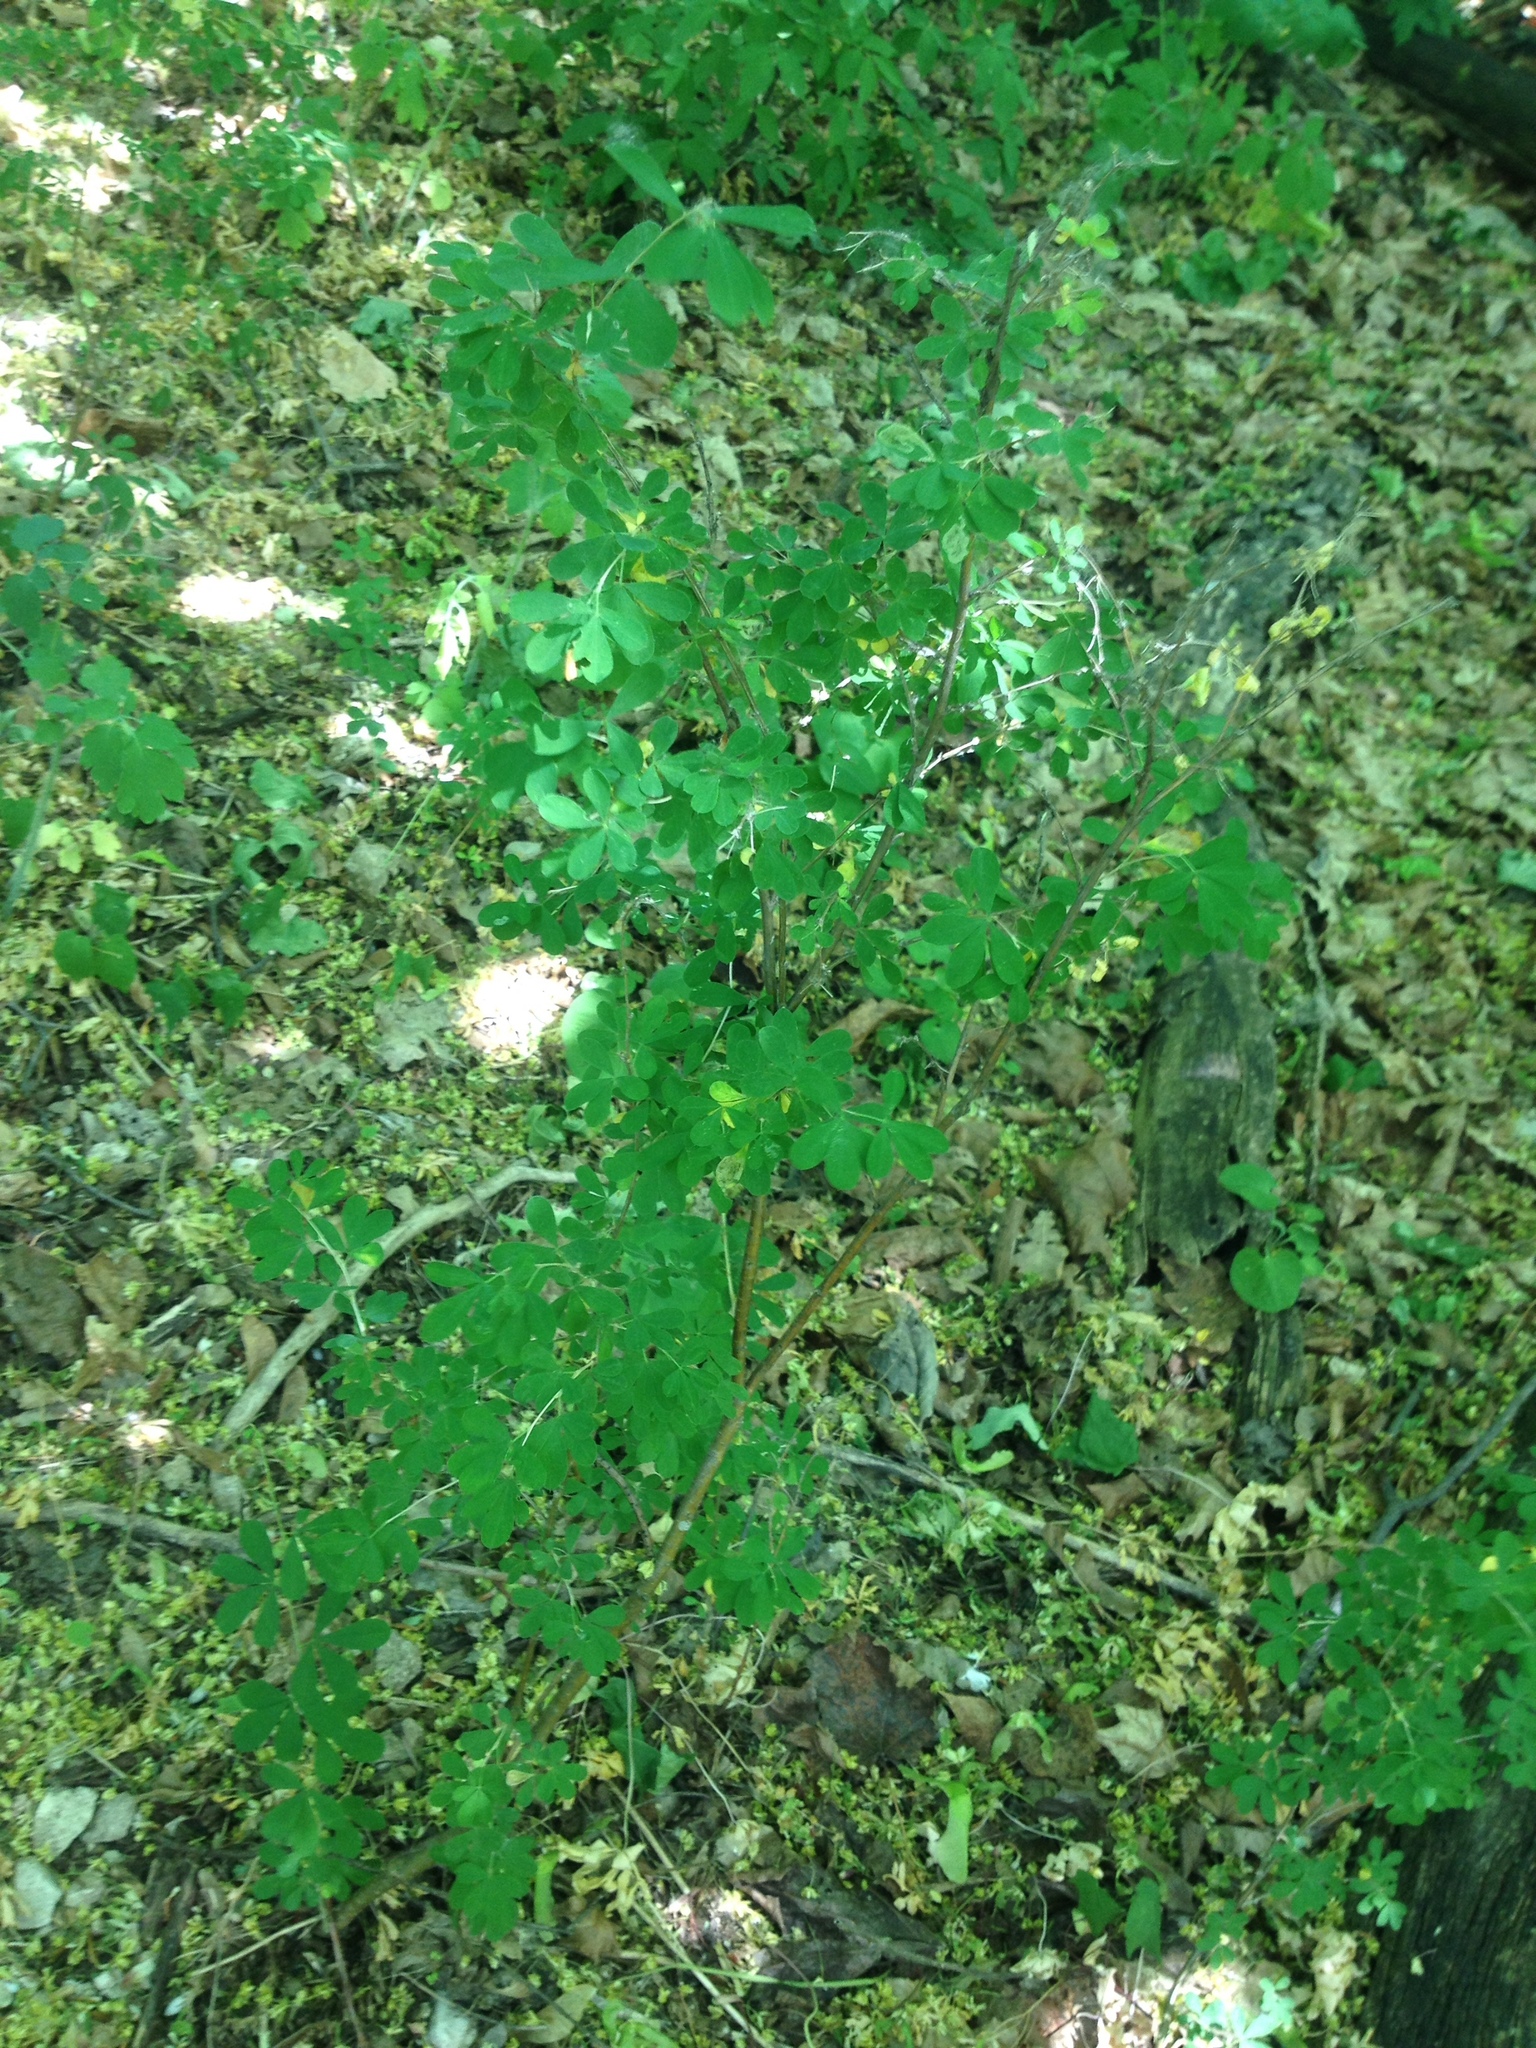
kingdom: Plantae
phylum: Tracheophyta
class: Magnoliopsida
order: Fabales
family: Fabaceae
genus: Chamaecytisus
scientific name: Chamaecytisus ruthenicus
